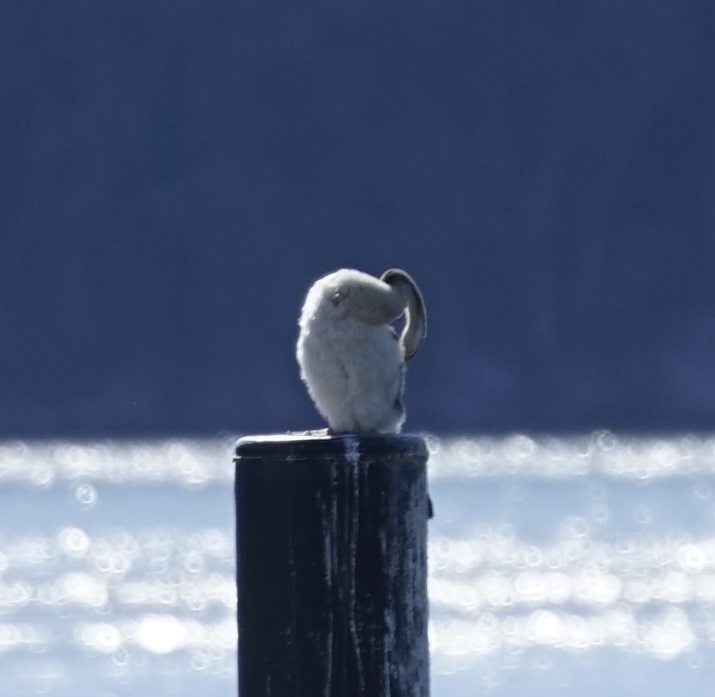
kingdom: Animalia
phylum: Chordata
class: Aves
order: Suliformes
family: Anhingidae
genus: Anhinga
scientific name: Anhinga novaehollandiae
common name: Australasian darter
